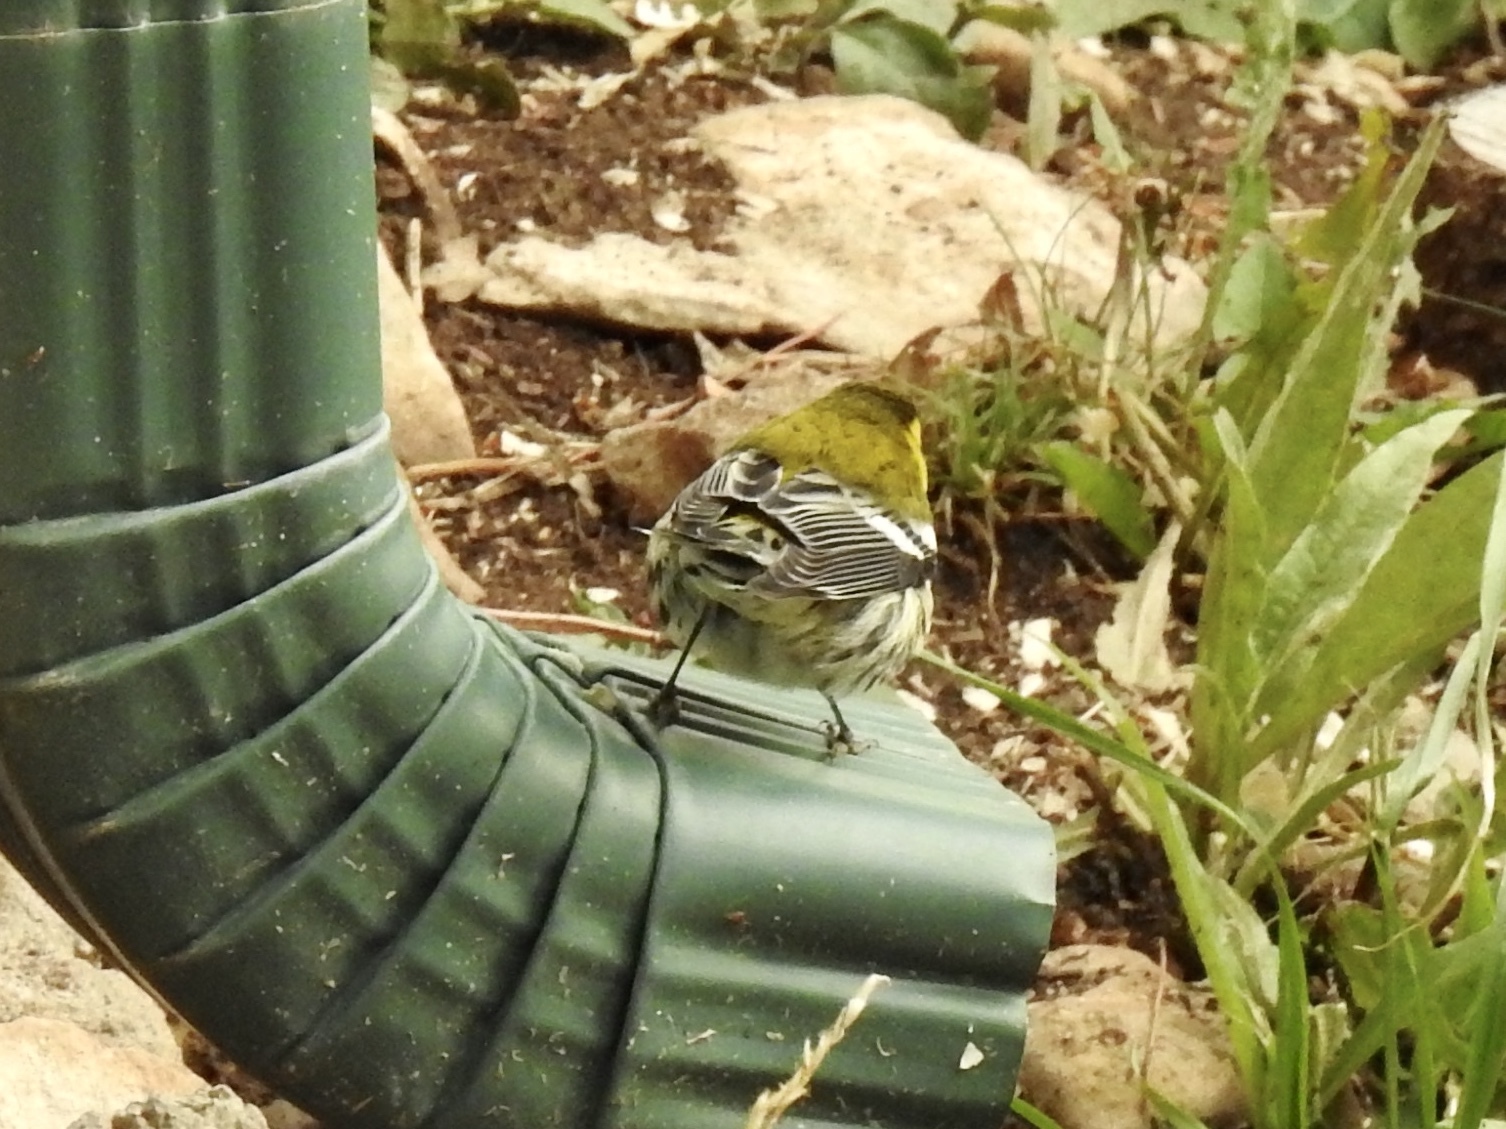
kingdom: Animalia
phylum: Chordata
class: Aves
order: Passeriformes
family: Parulidae
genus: Setophaga
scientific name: Setophaga townsendi
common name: Townsend's warbler
